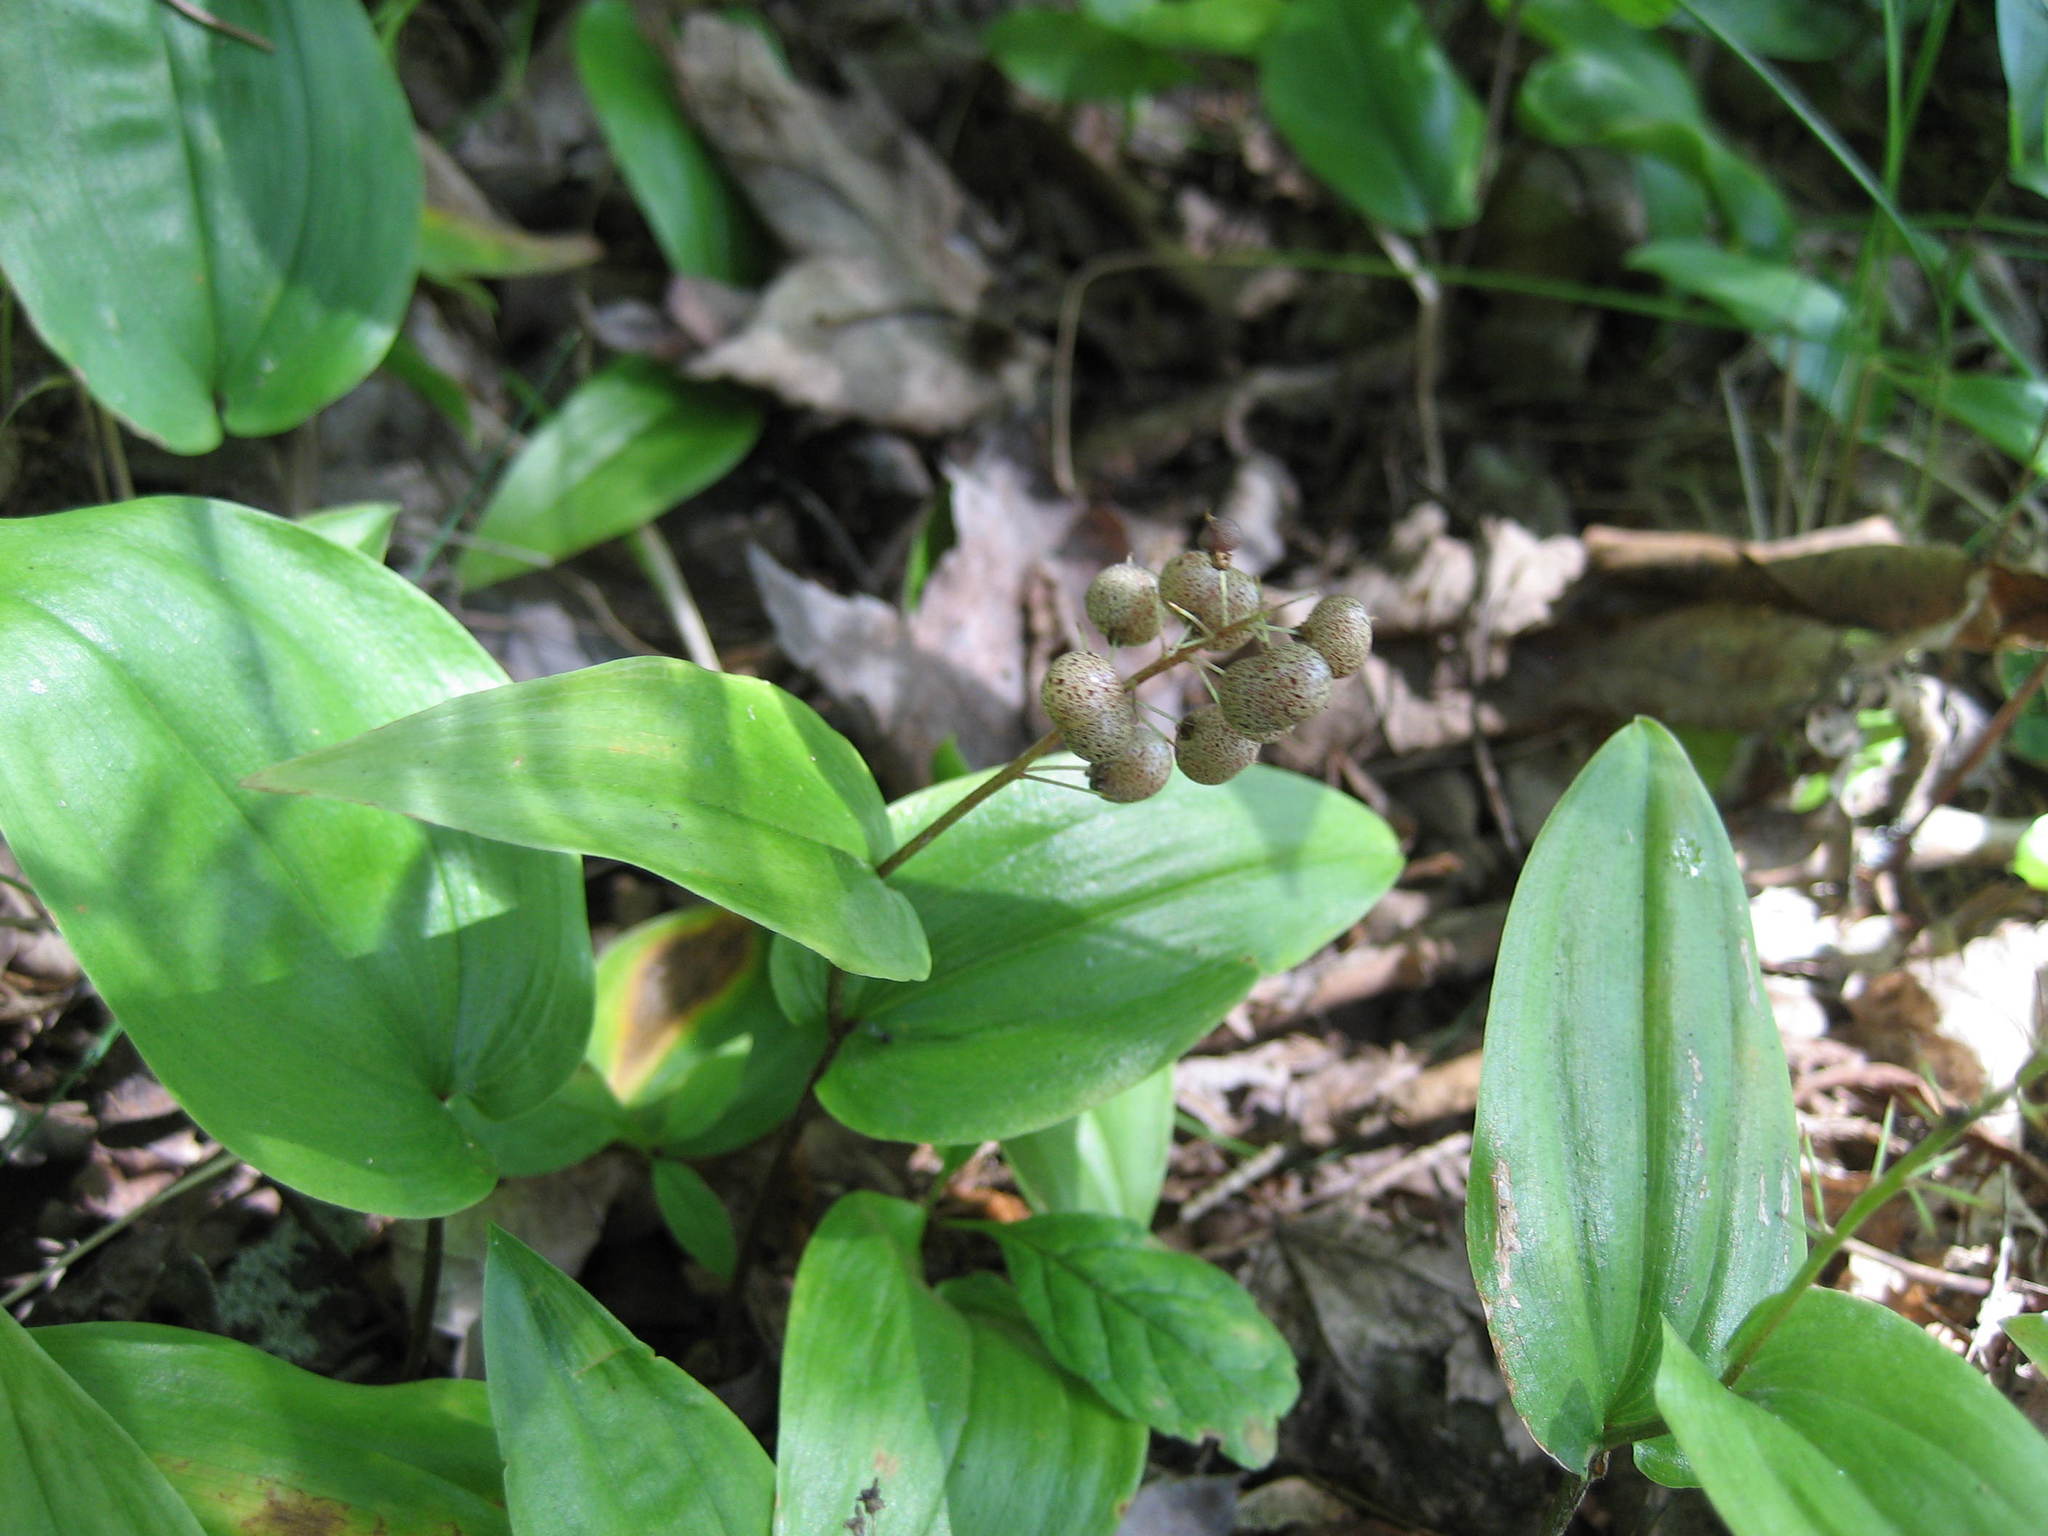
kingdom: Plantae
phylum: Tracheophyta
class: Liliopsida
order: Asparagales
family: Asparagaceae
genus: Maianthemum
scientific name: Maianthemum canadense
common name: False lily-of-the-valley
